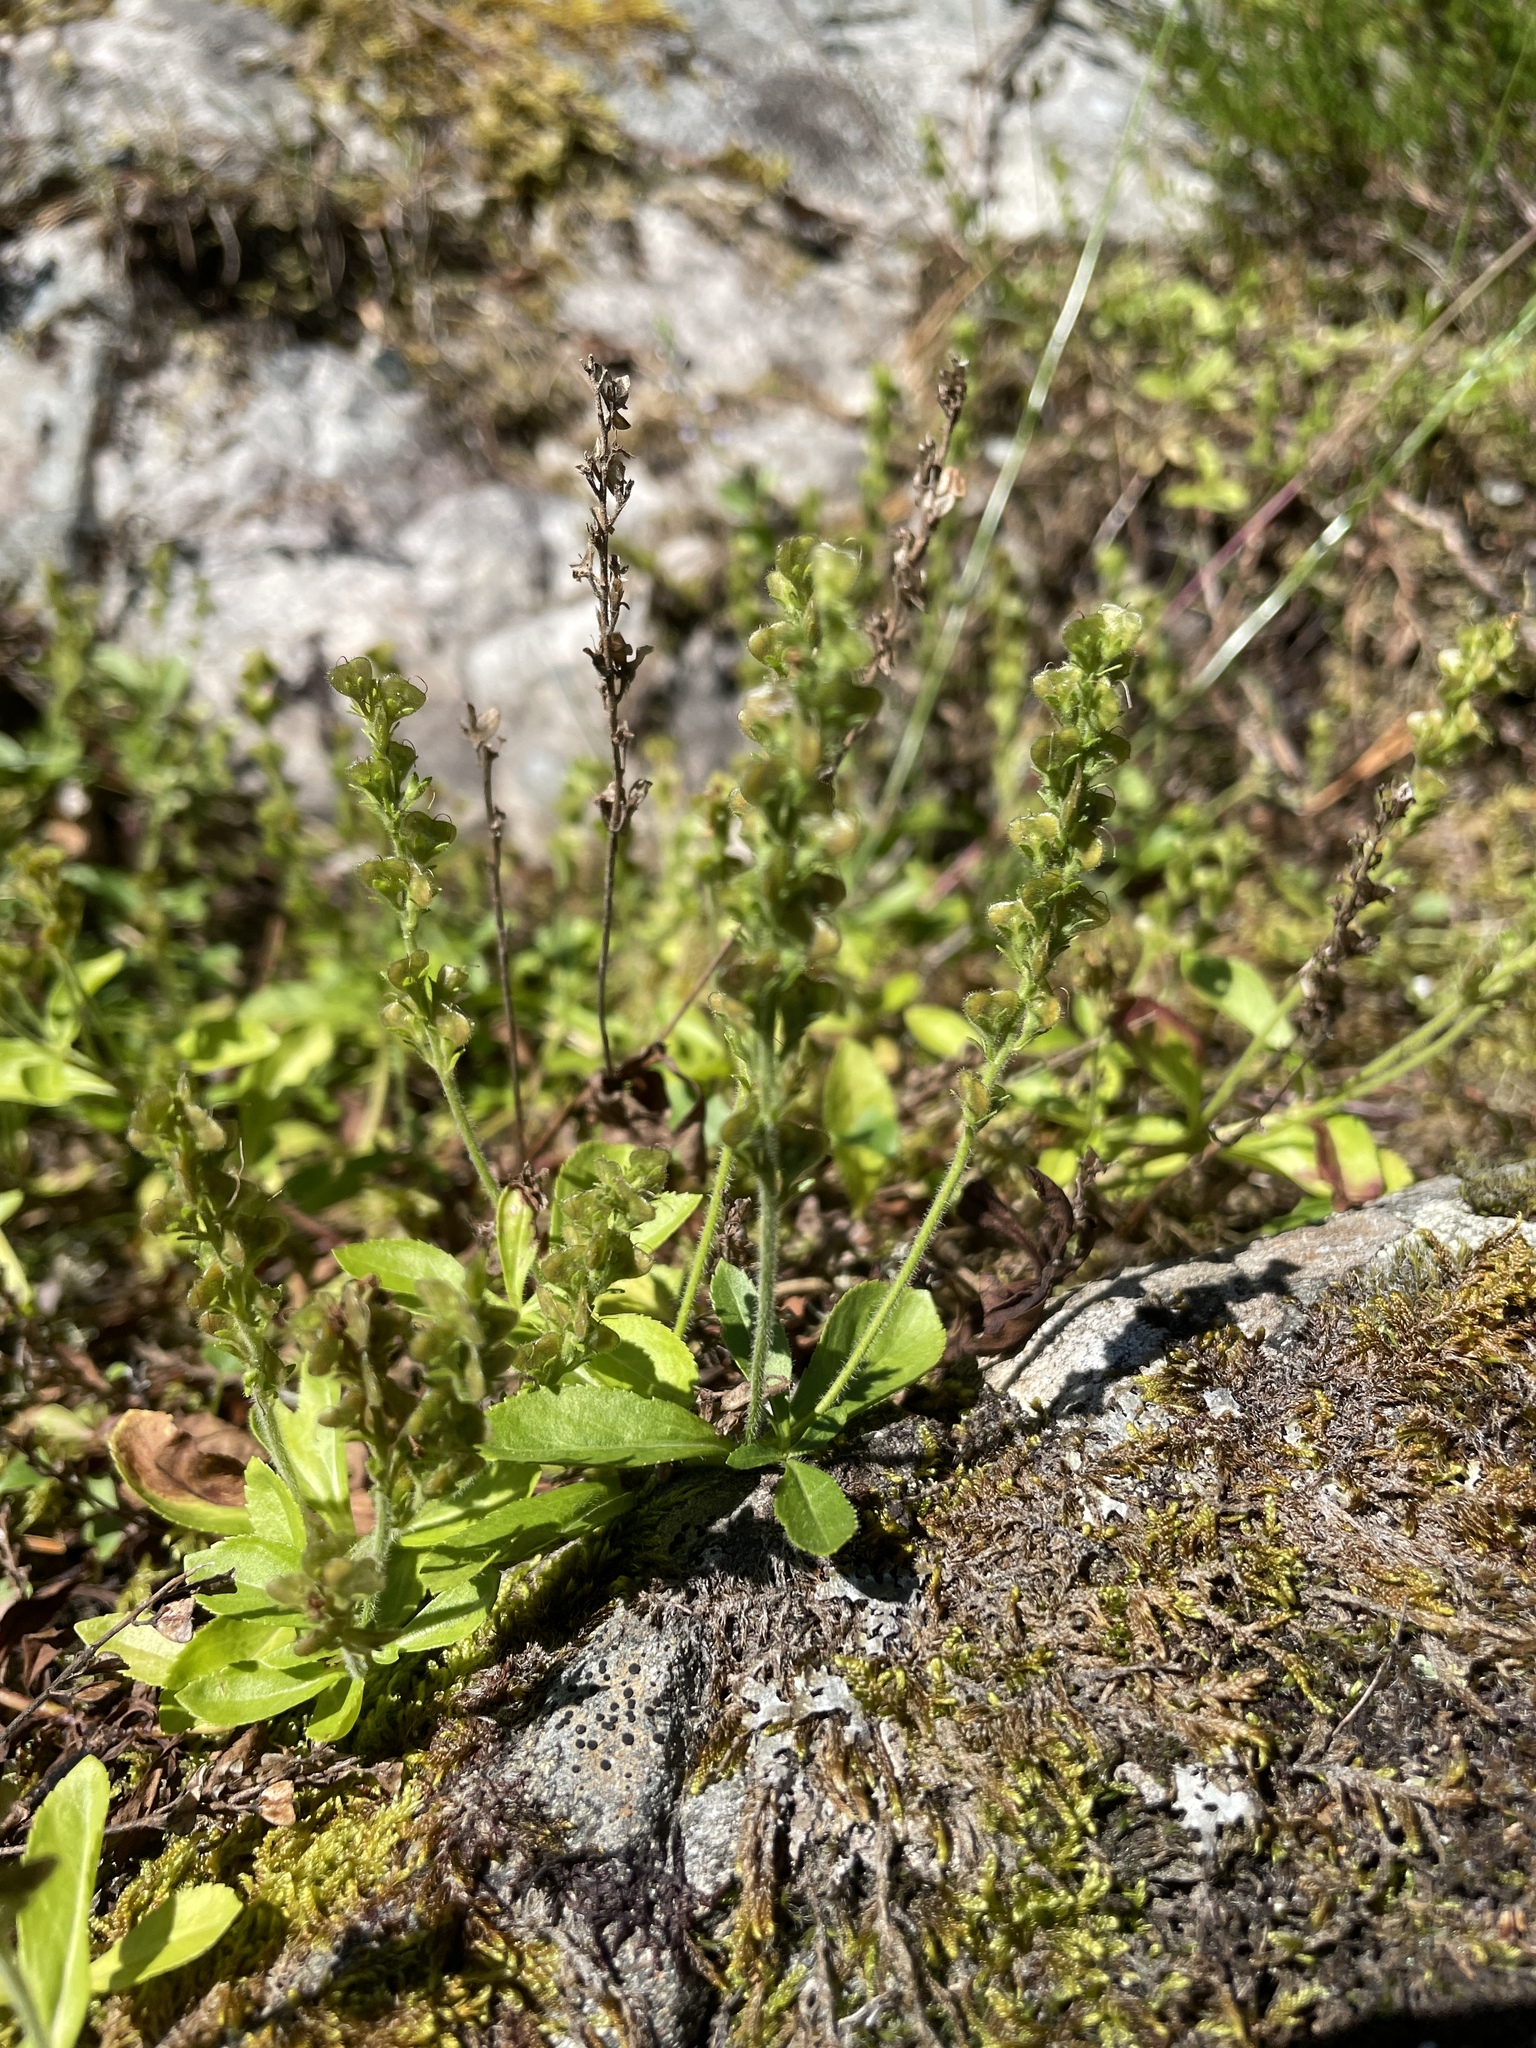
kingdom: Plantae
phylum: Tracheophyta
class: Magnoliopsida
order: Lamiales
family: Plantaginaceae
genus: Veronica
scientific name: Veronica officinalis
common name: Common speedwell
